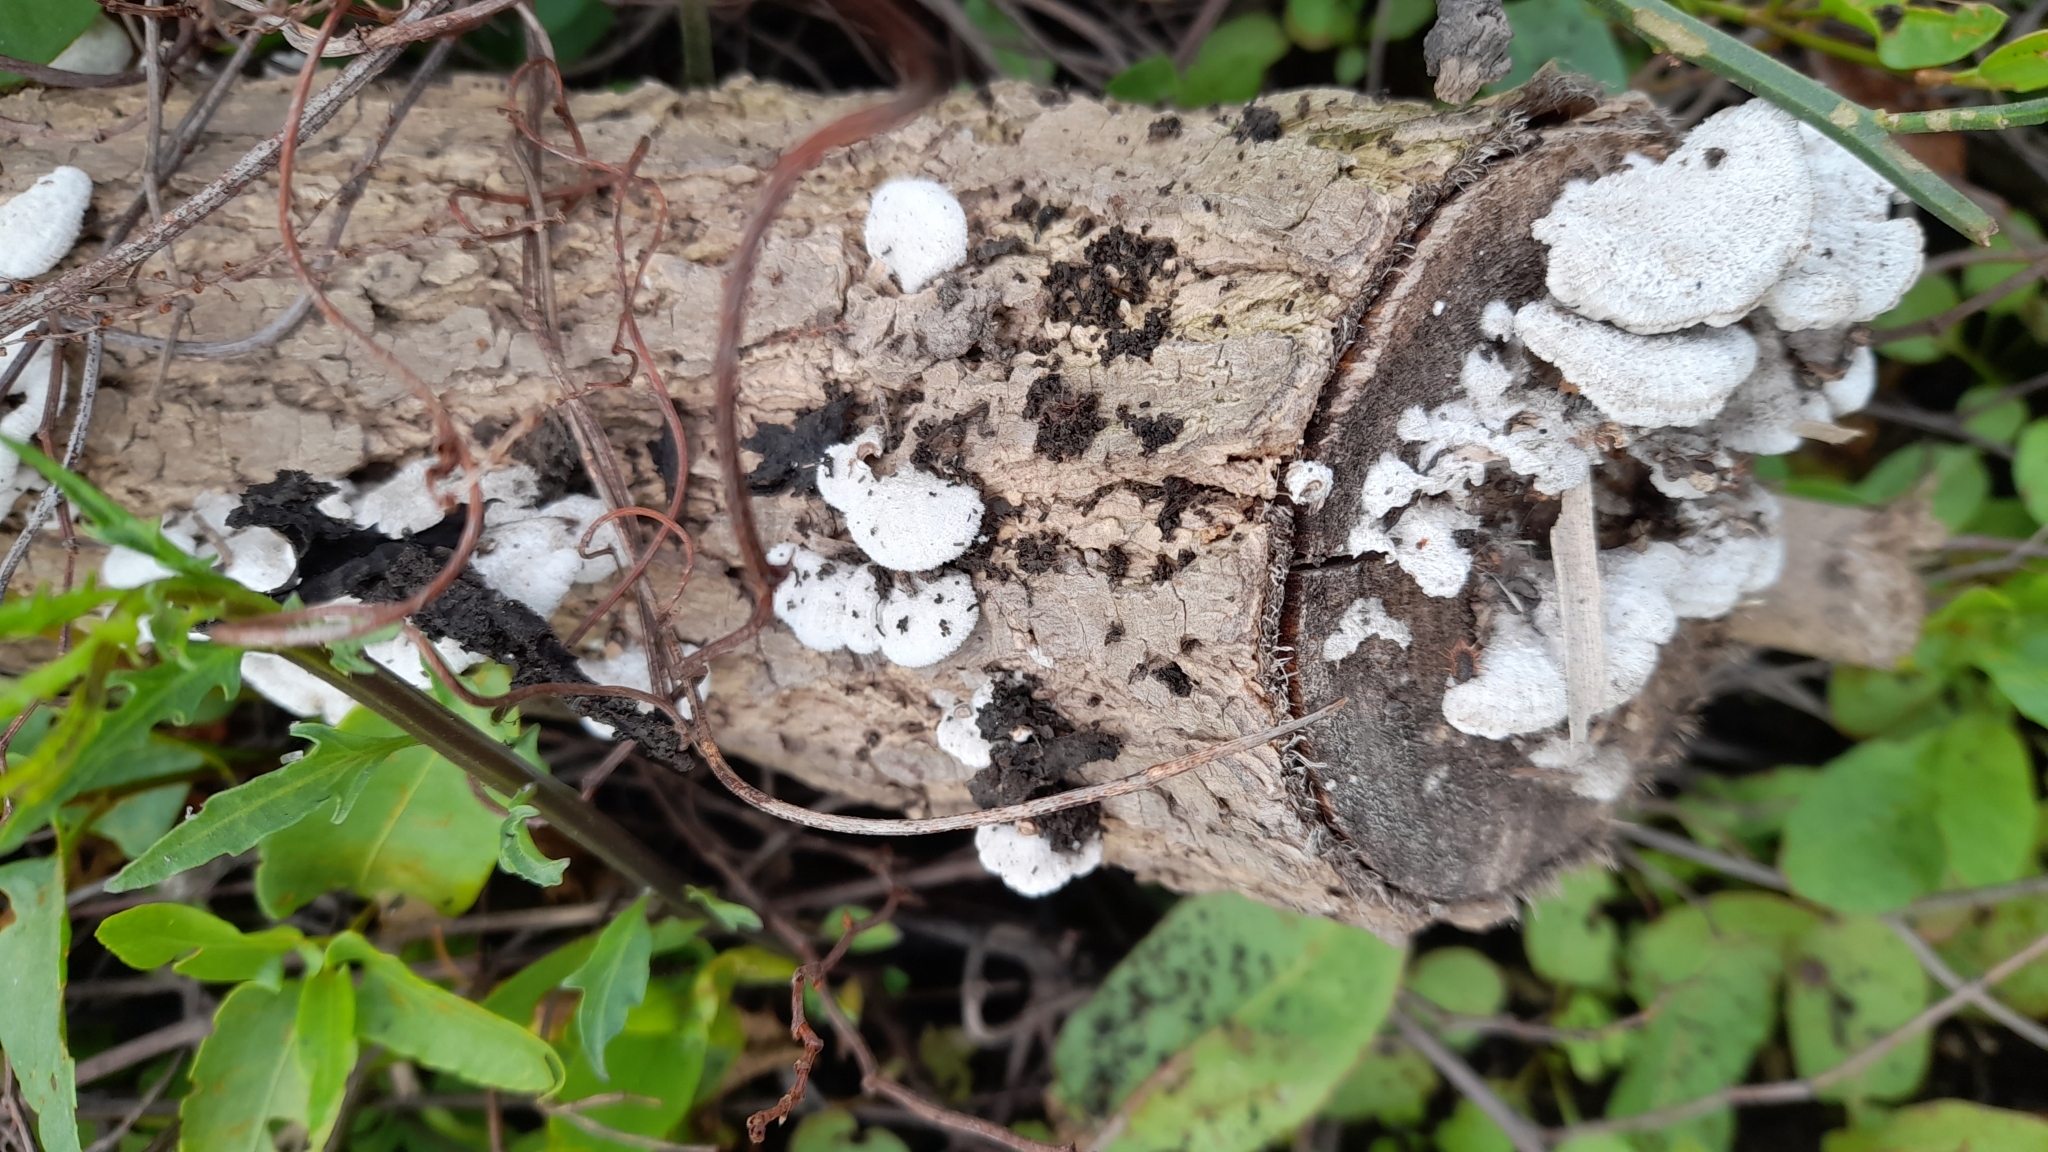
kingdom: Fungi
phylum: Basidiomycota
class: Agaricomycetes
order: Agaricales
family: Schizophyllaceae
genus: Schizophyllum
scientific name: Schizophyllum commune
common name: Common porecrust
